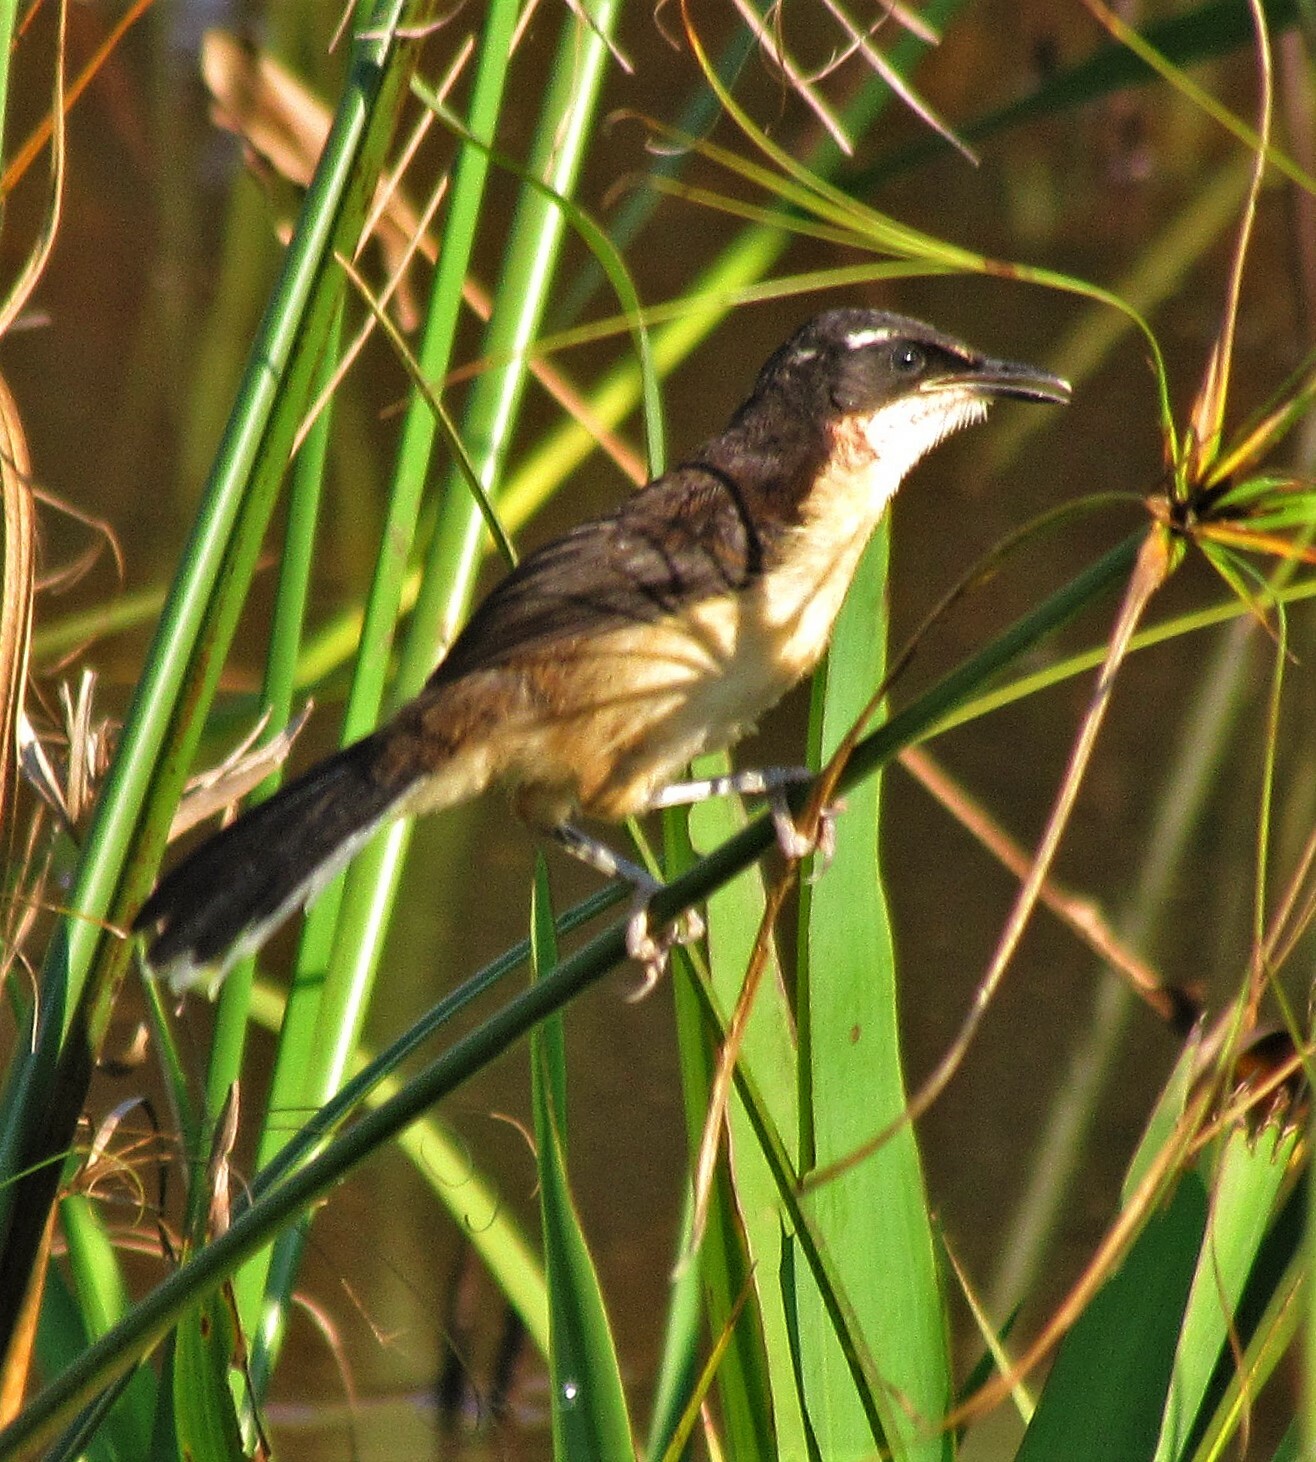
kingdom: Animalia
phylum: Chordata
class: Aves
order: Passeriformes
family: Donacobiidae
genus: Donacobius
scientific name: Donacobius atricapilla
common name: Black-capped donacobius
